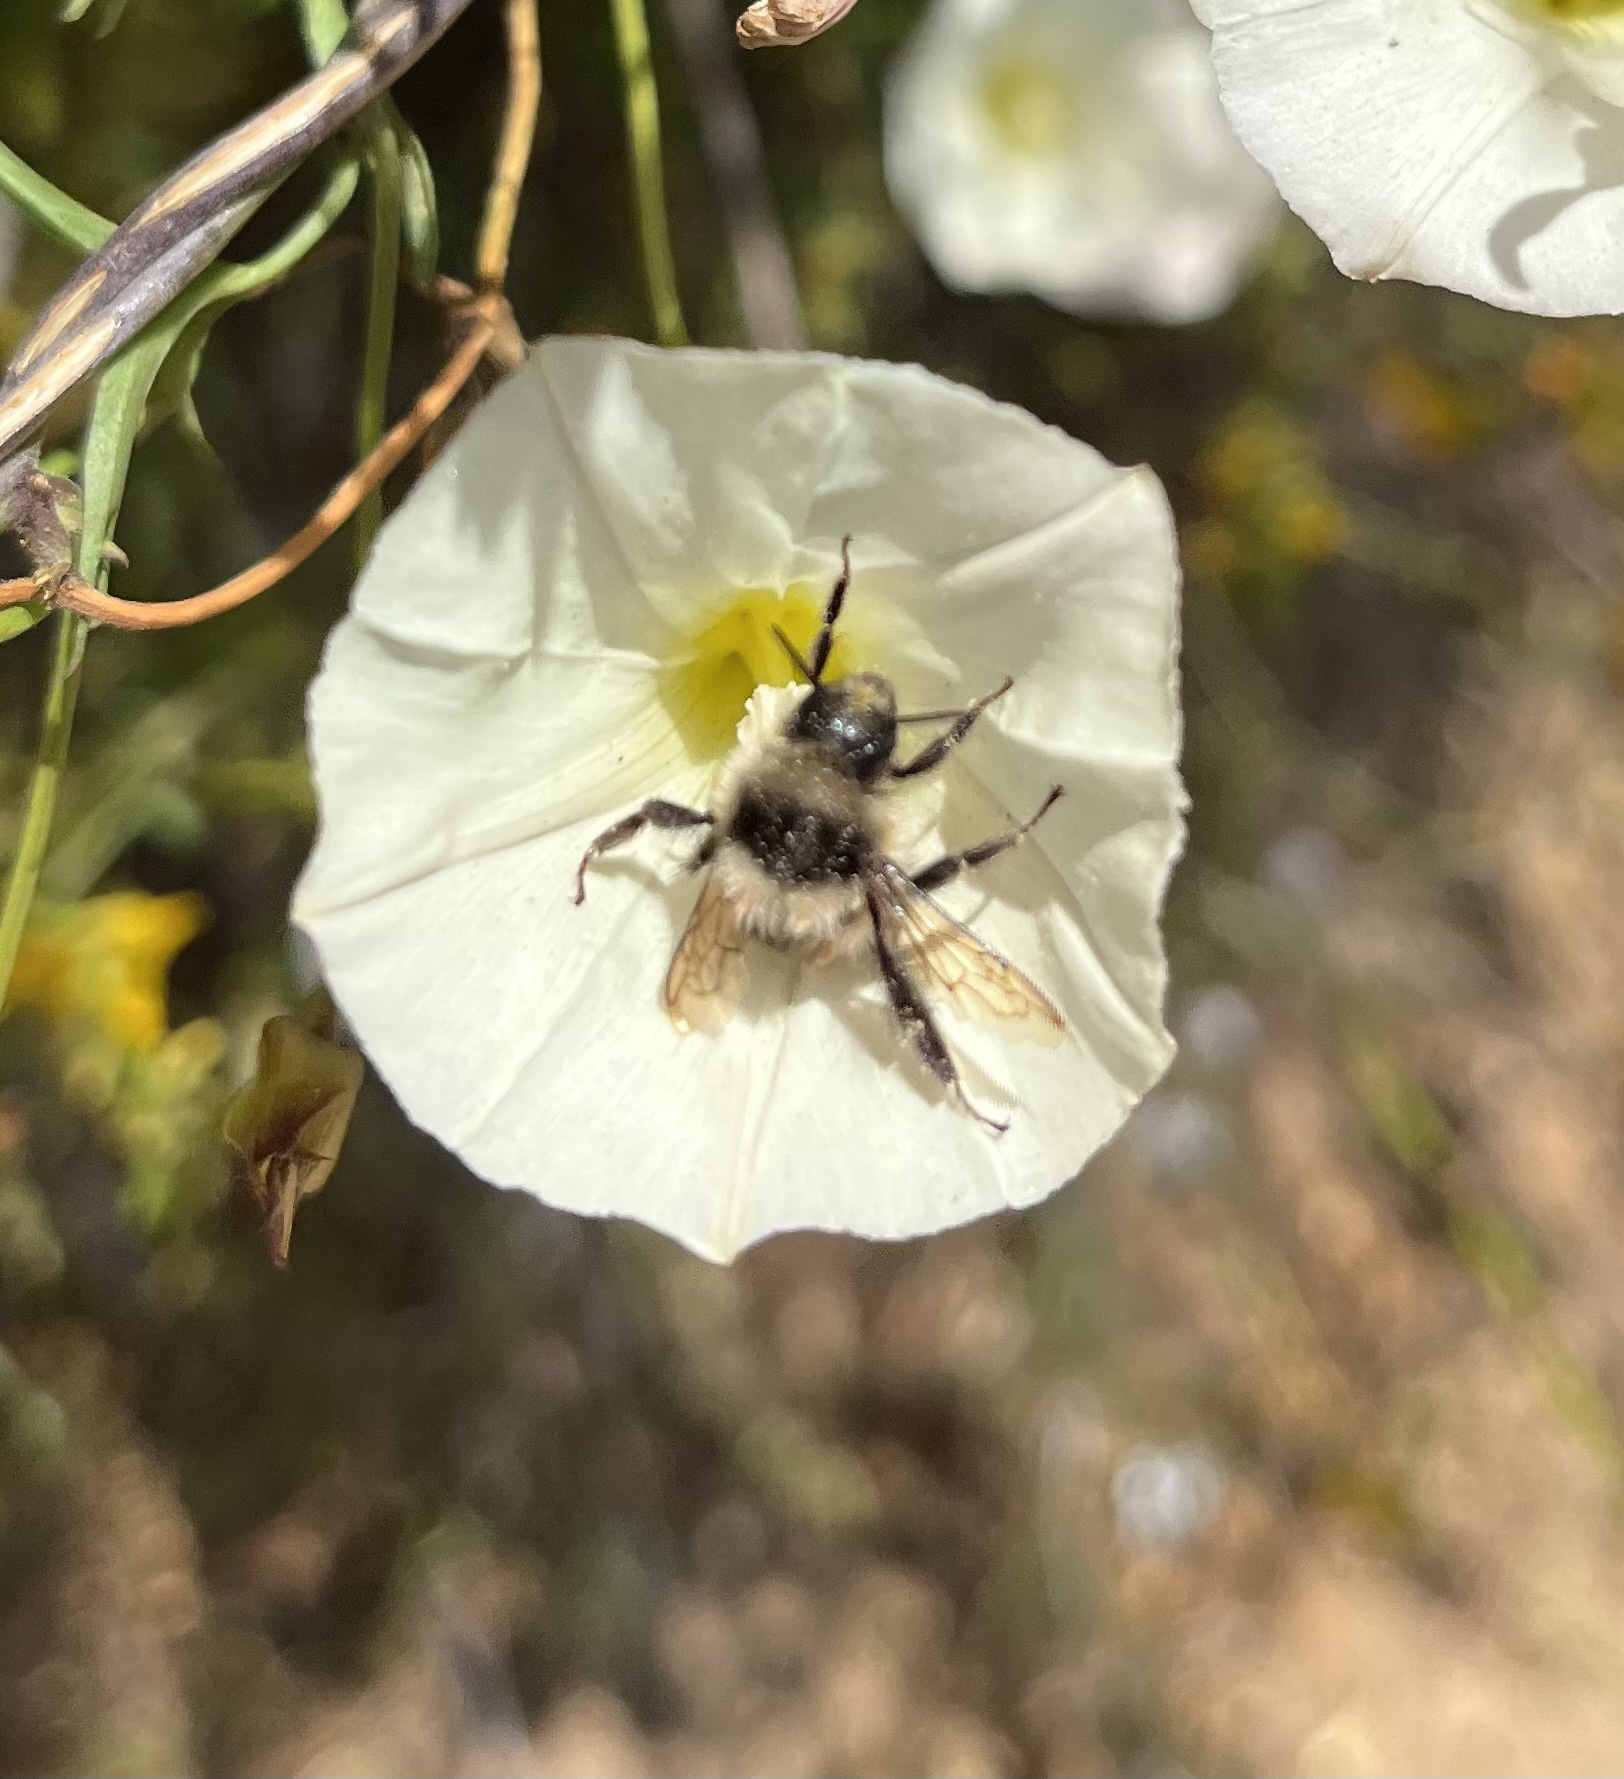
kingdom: Animalia
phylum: Arthropoda
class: Insecta
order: Hymenoptera
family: Apidae
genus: Bombus
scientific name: Bombus melanopygus
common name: Black tail bumble bee
